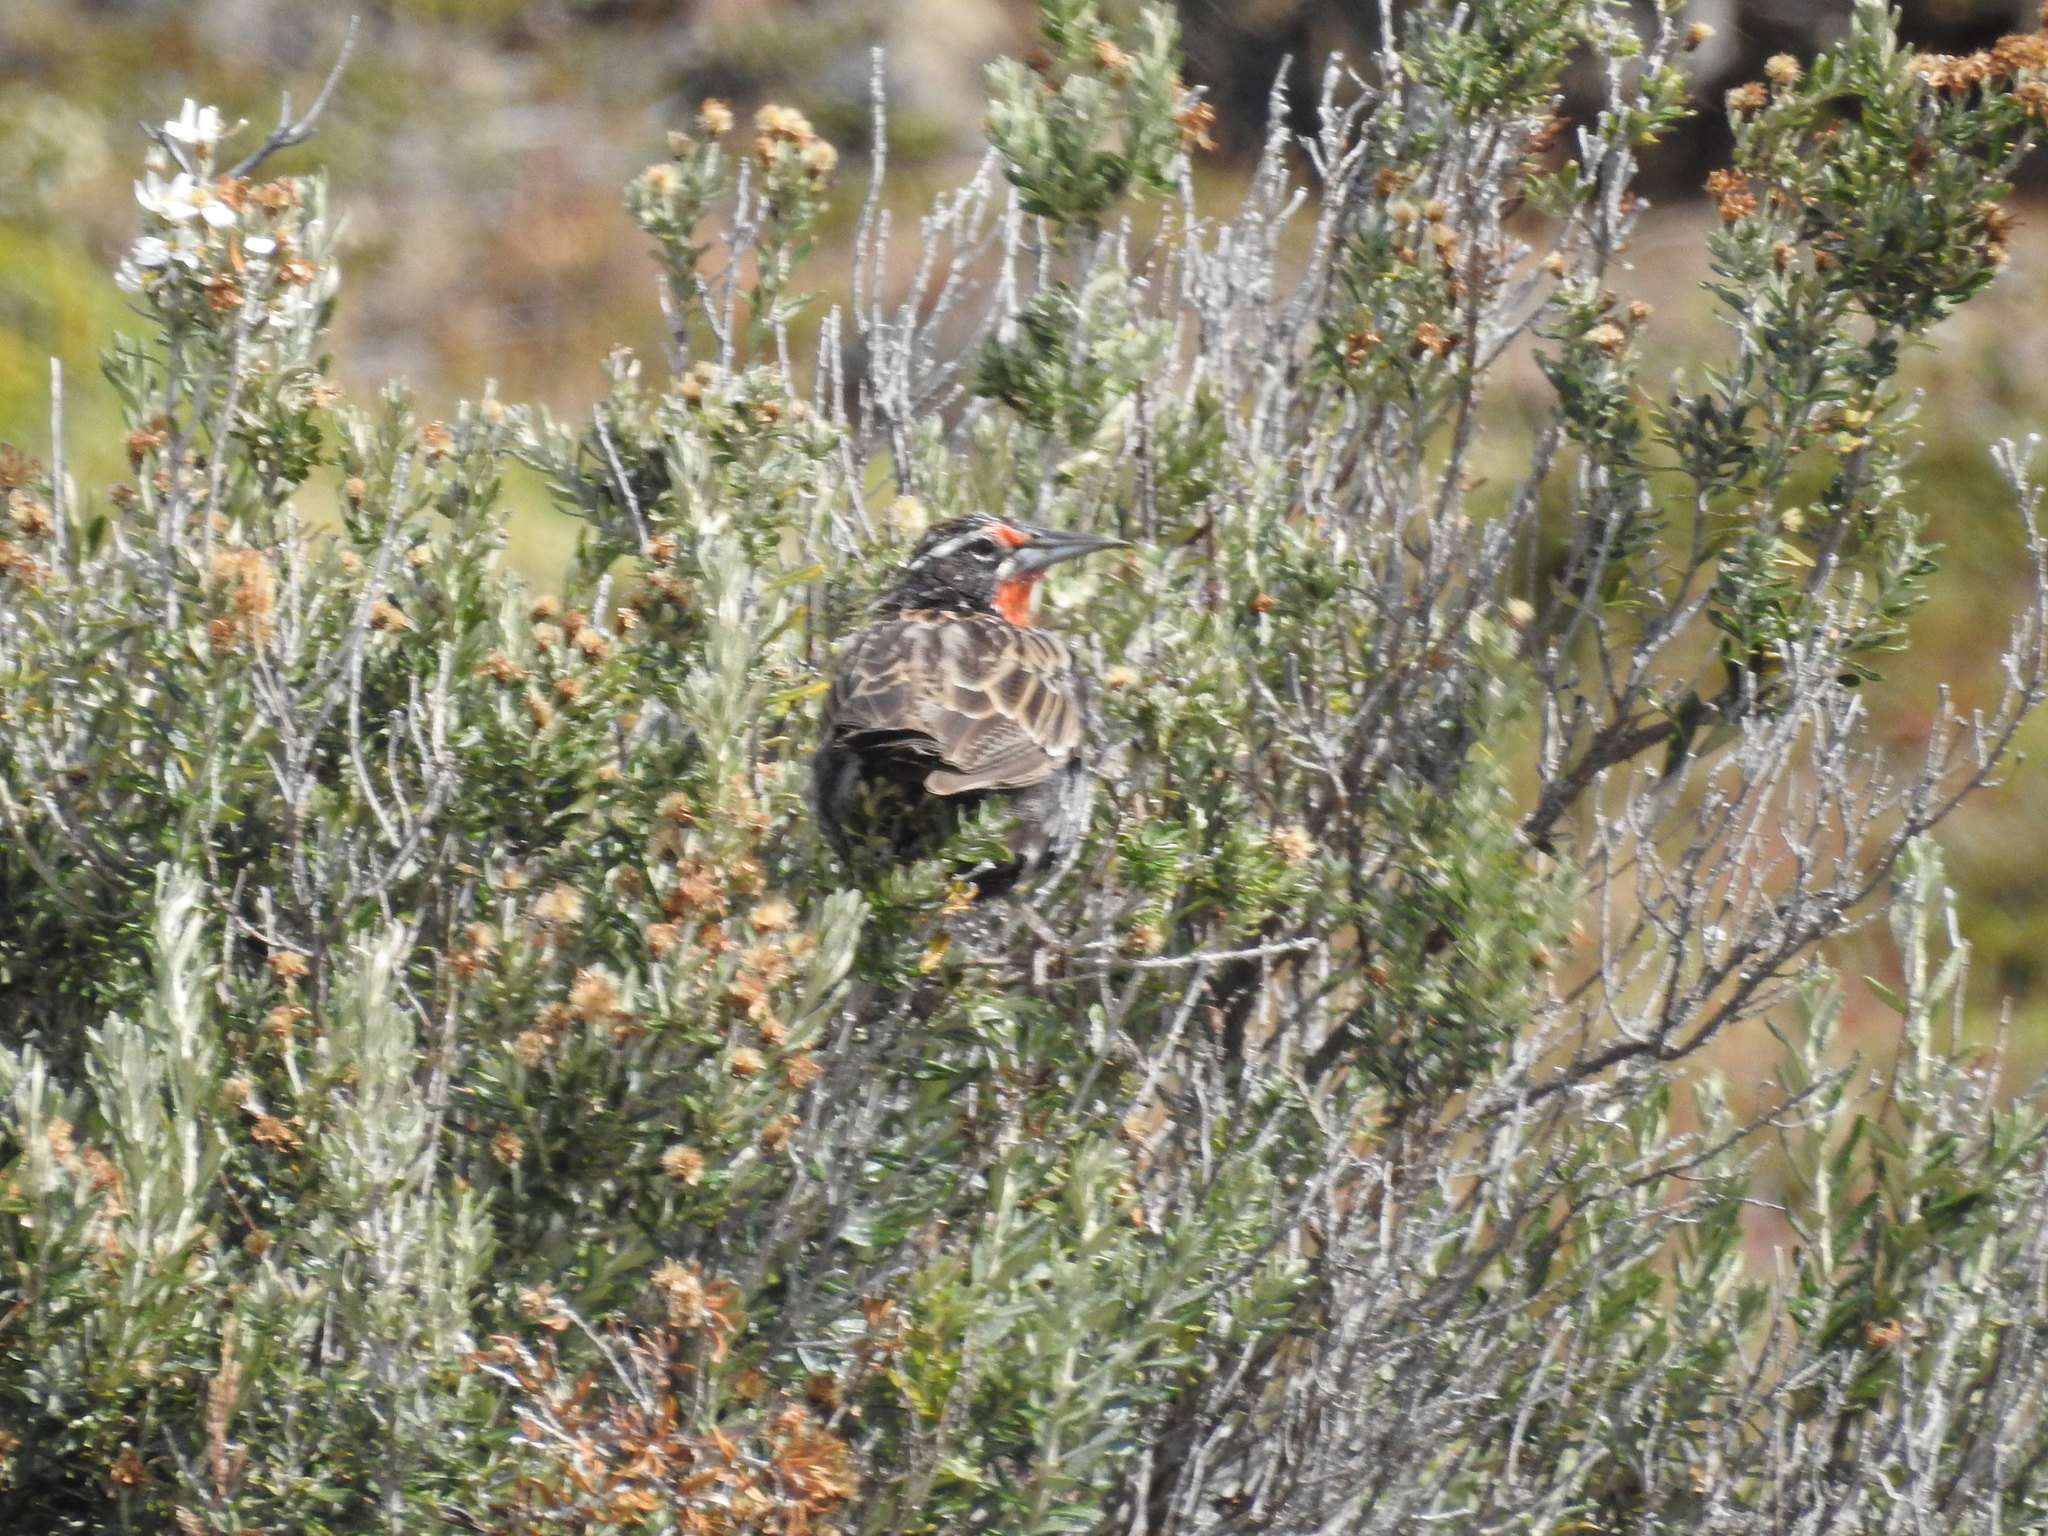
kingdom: Animalia
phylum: Chordata
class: Aves
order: Passeriformes
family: Icteridae
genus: Sturnella
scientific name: Sturnella loyca
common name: Long-tailed meadowlark
